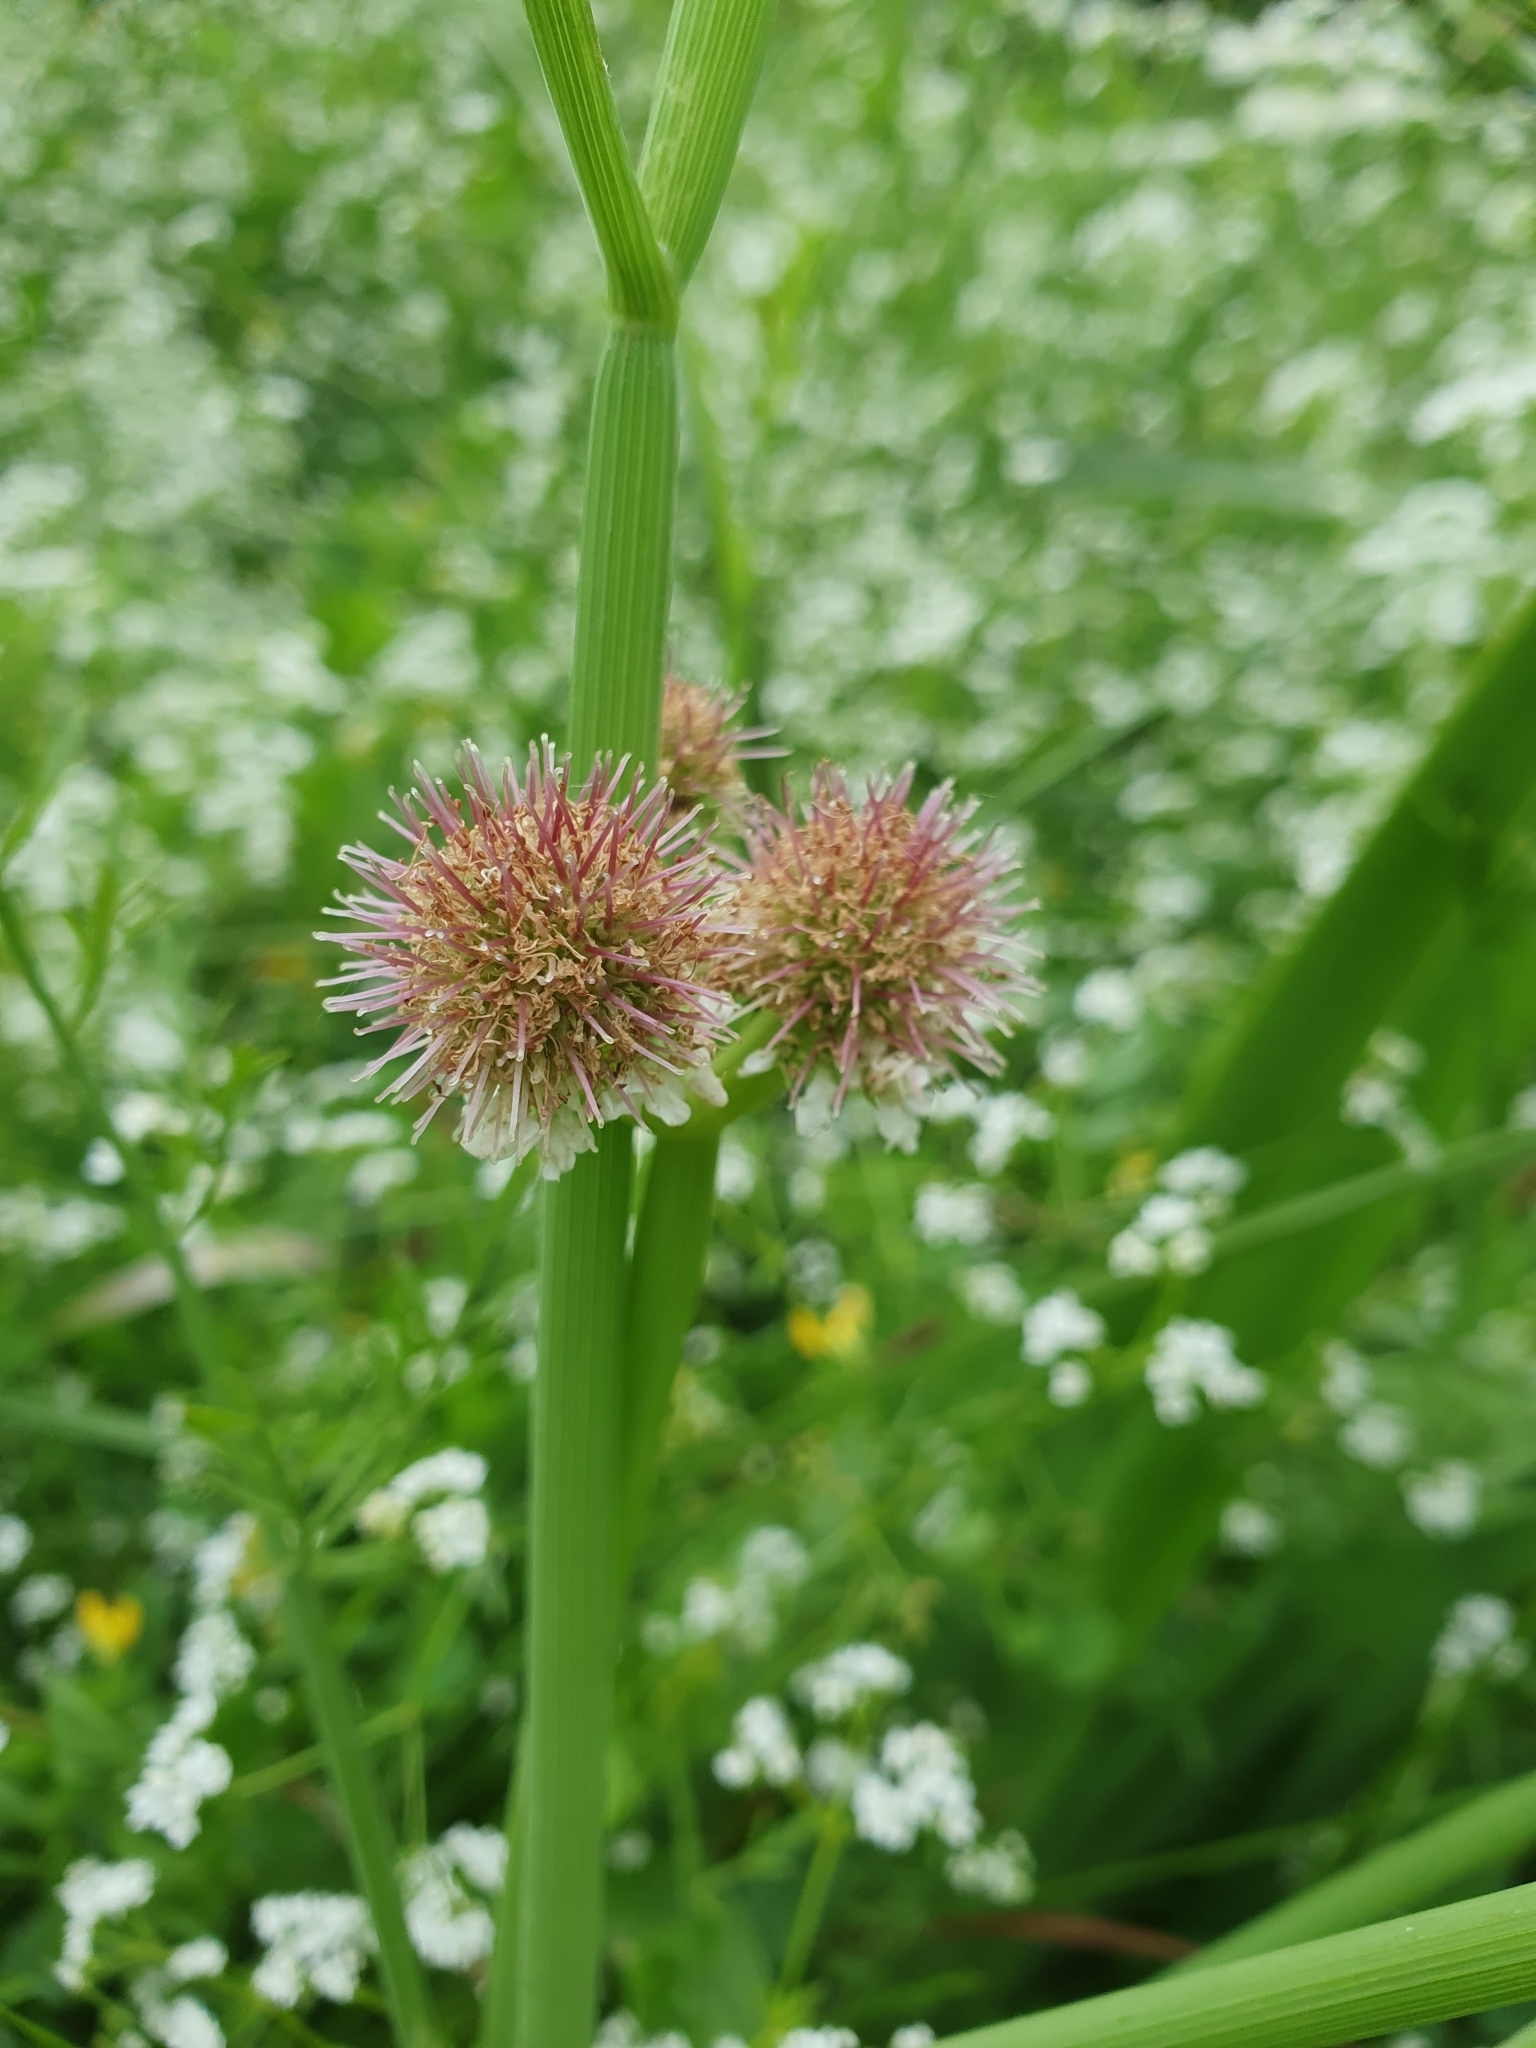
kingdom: Plantae
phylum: Tracheophyta
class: Magnoliopsida
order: Apiales
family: Apiaceae
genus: Oenanthe
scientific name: Oenanthe fistulosa
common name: Tubular water-dropwort
